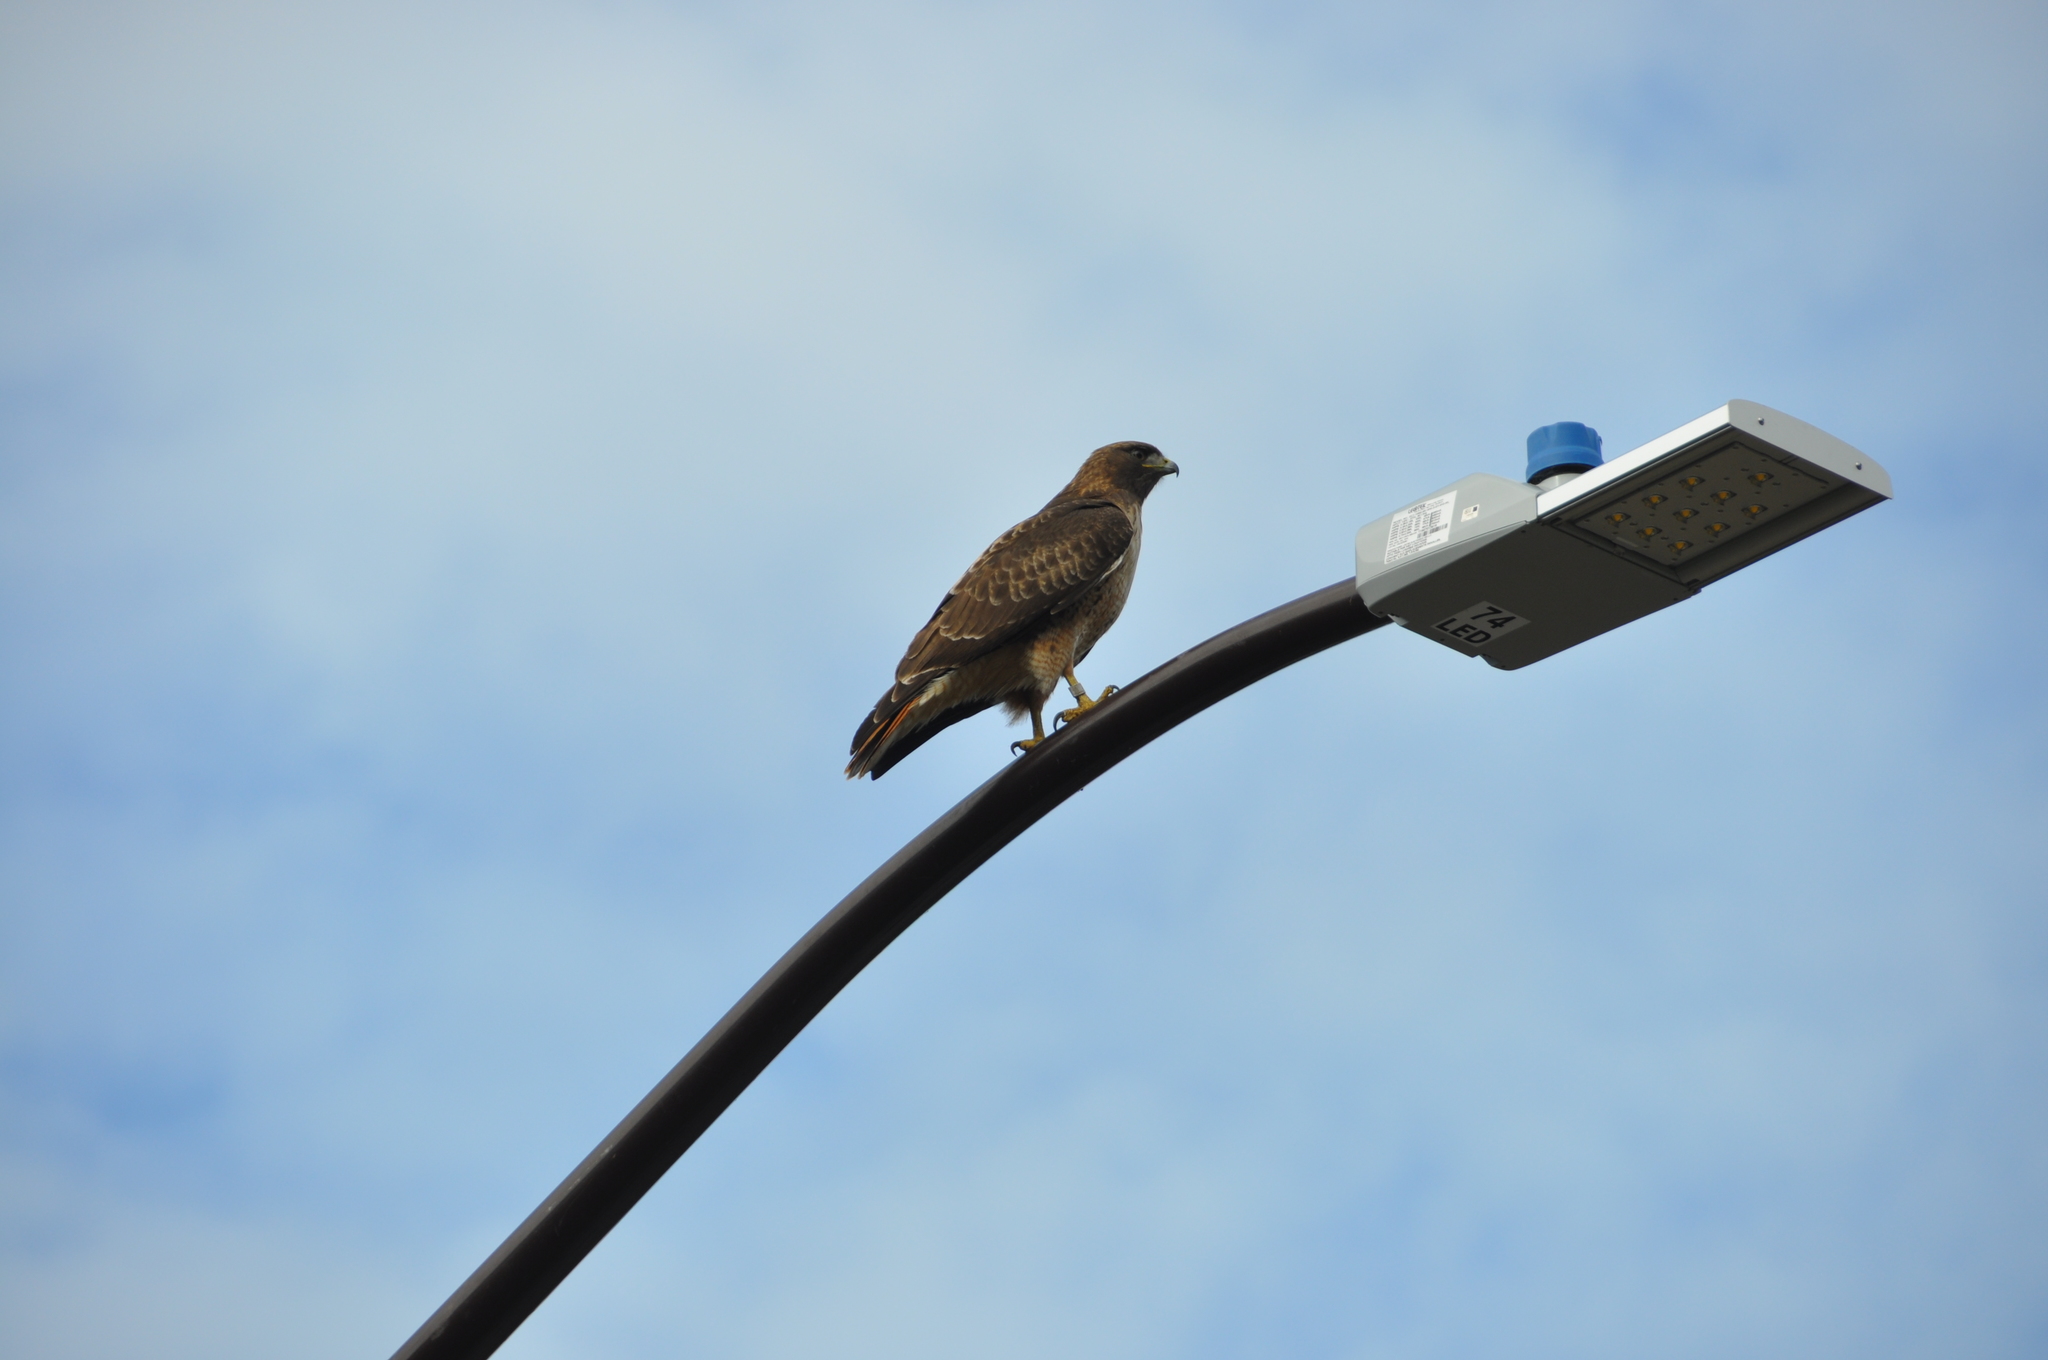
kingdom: Animalia
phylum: Chordata
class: Aves
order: Accipitriformes
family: Accipitridae
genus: Buteo
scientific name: Buteo jamaicensis
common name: Red-tailed hawk
